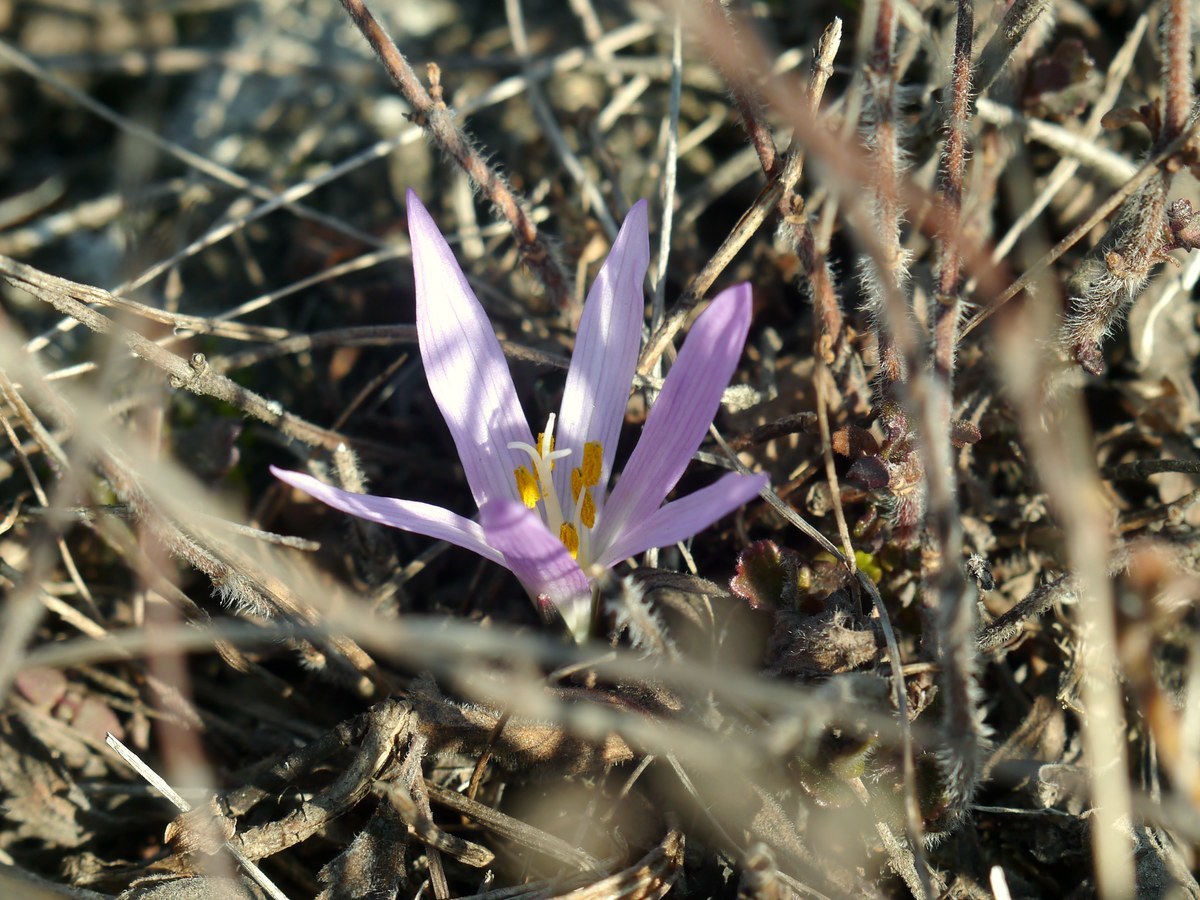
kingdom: Plantae
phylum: Tracheophyta
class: Liliopsida
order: Liliales
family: Colchicaceae
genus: Colchicum
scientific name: Colchicum bulbocodium
